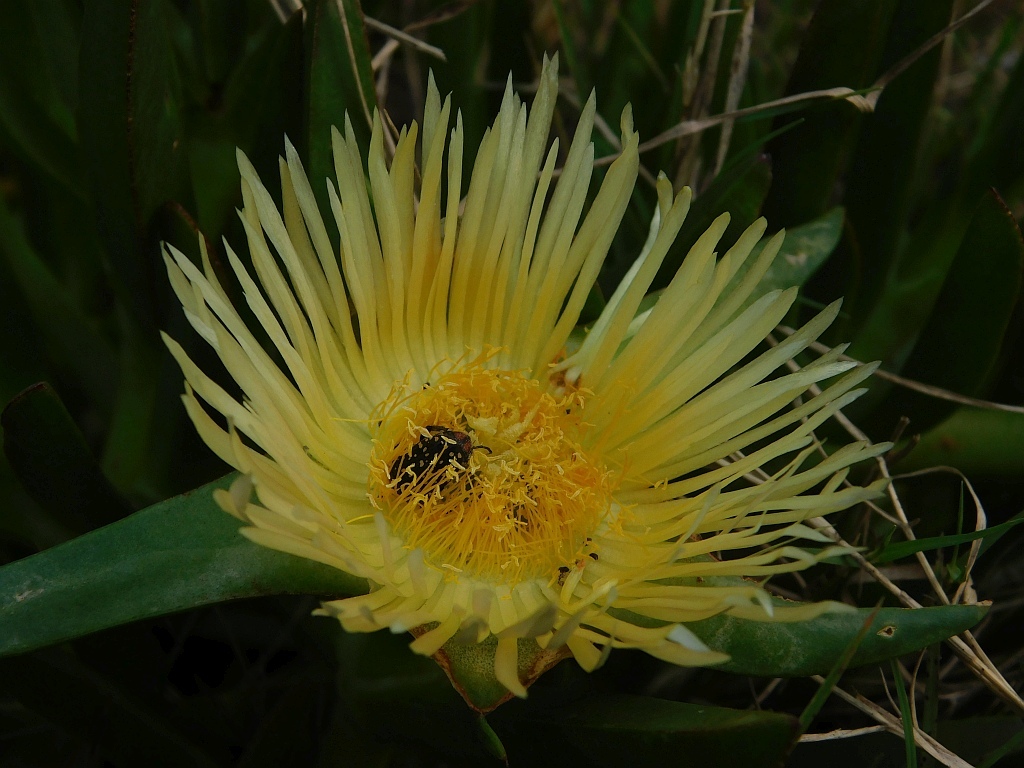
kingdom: Plantae
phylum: Tracheophyta
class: Magnoliopsida
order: Caryophyllales
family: Aizoaceae
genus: Carpobrotus
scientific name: Carpobrotus edulis
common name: Hottentot-fig
